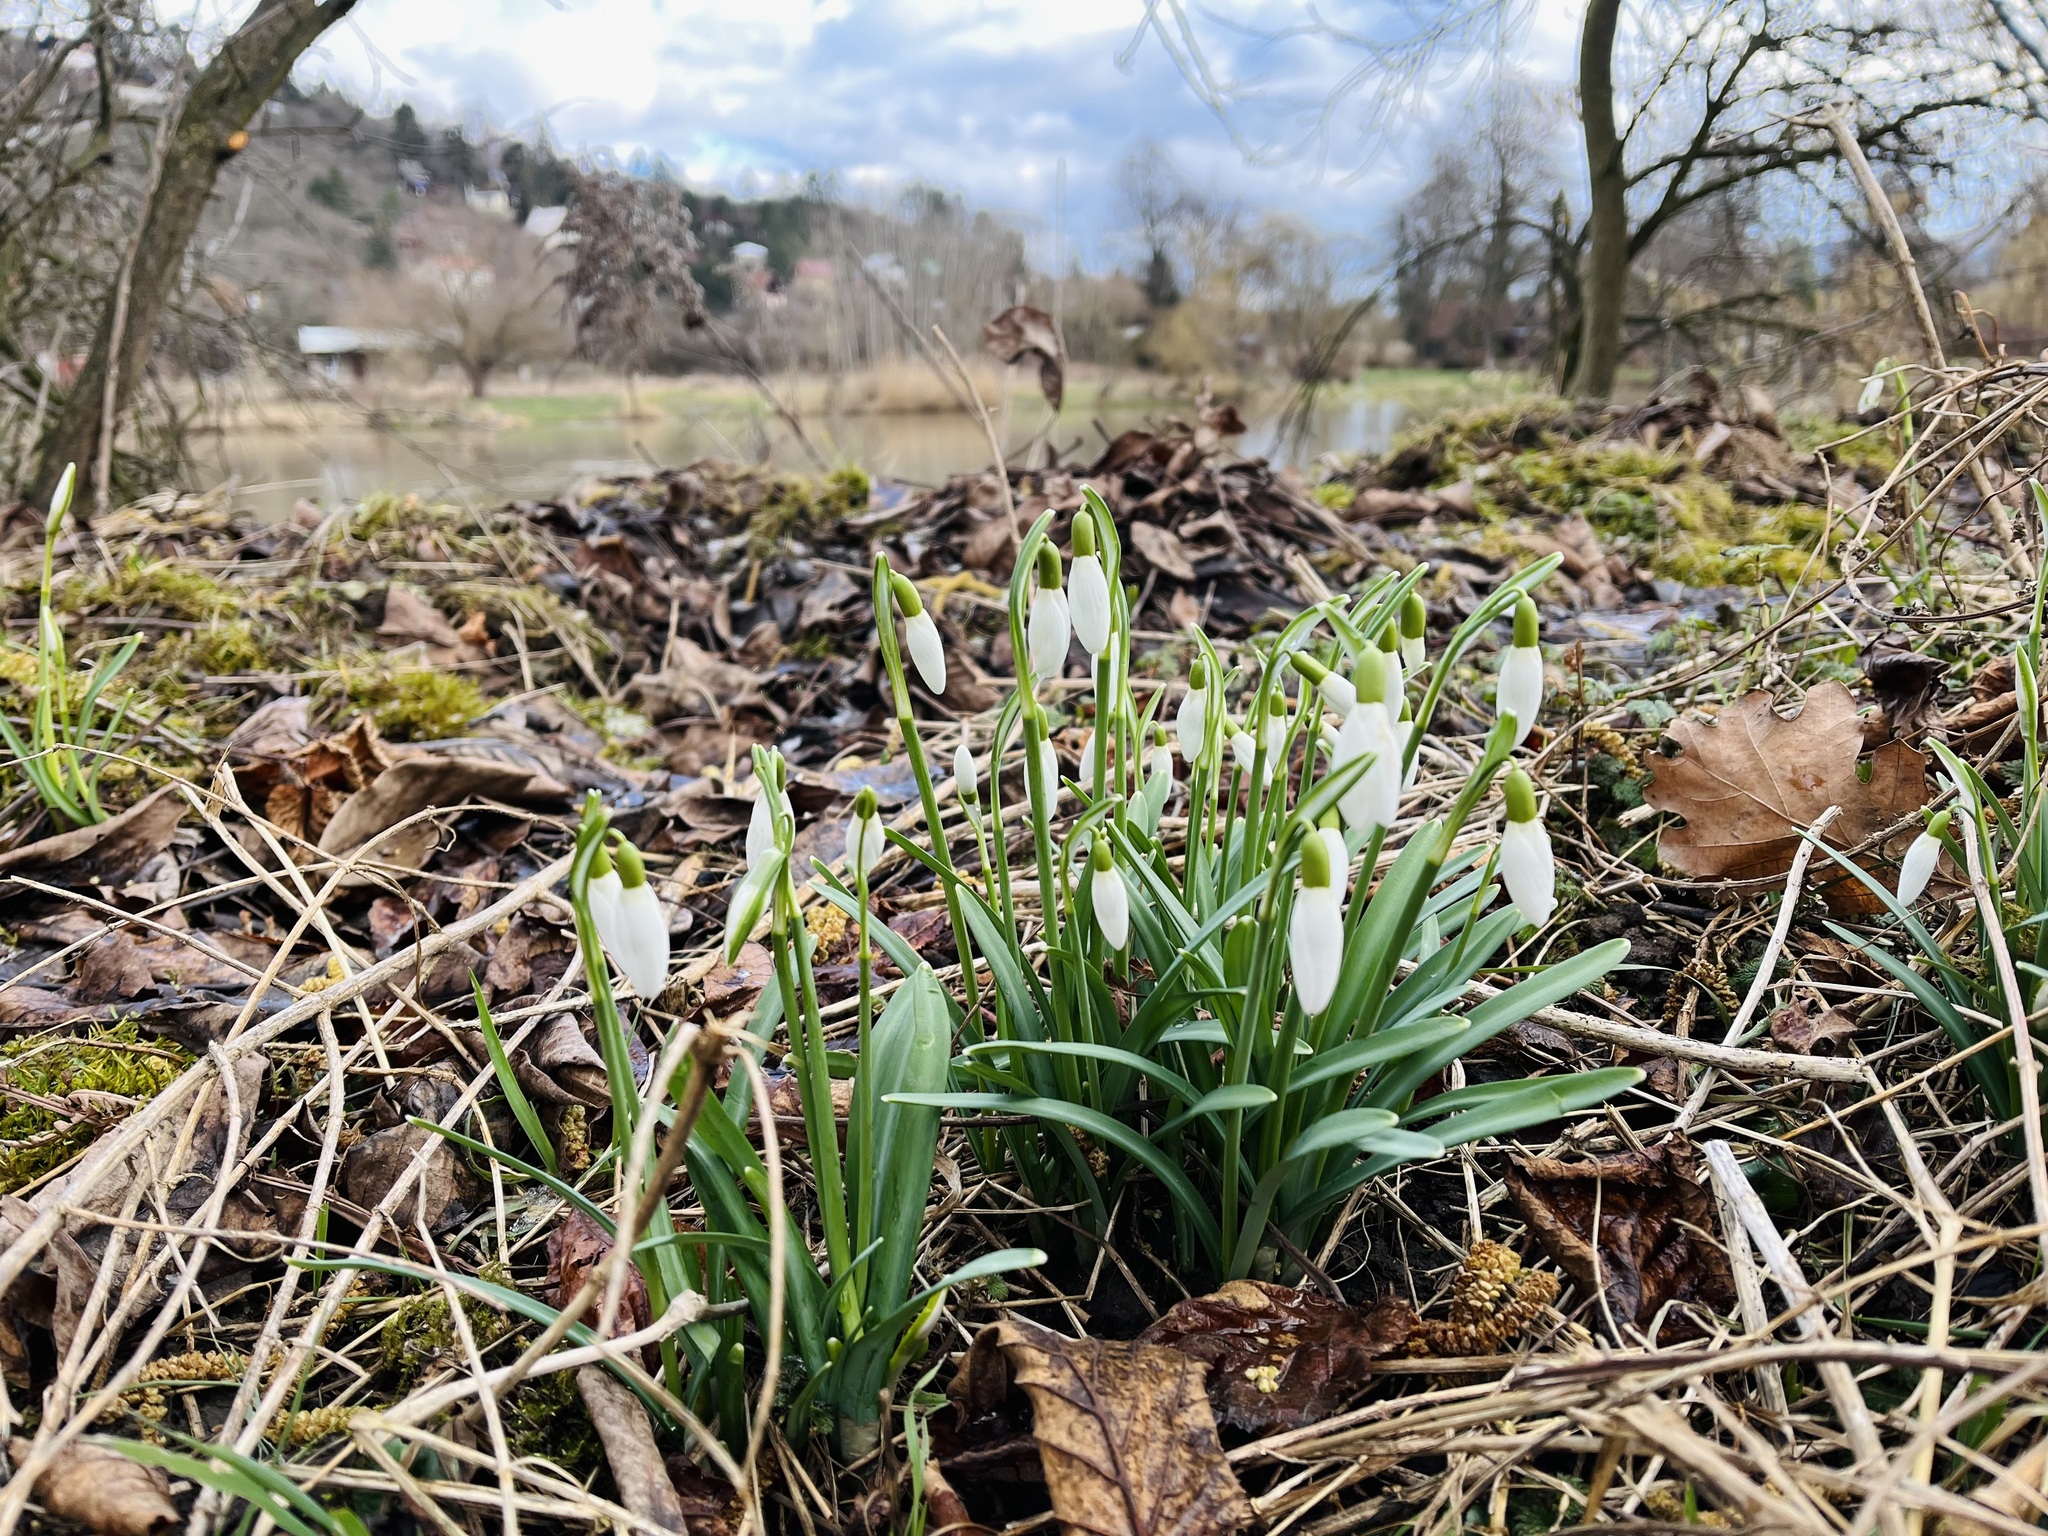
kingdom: Plantae
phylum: Tracheophyta
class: Liliopsida
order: Asparagales
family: Amaryllidaceae
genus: Galanthus
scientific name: Galanthus nivalis
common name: Snowdrop
